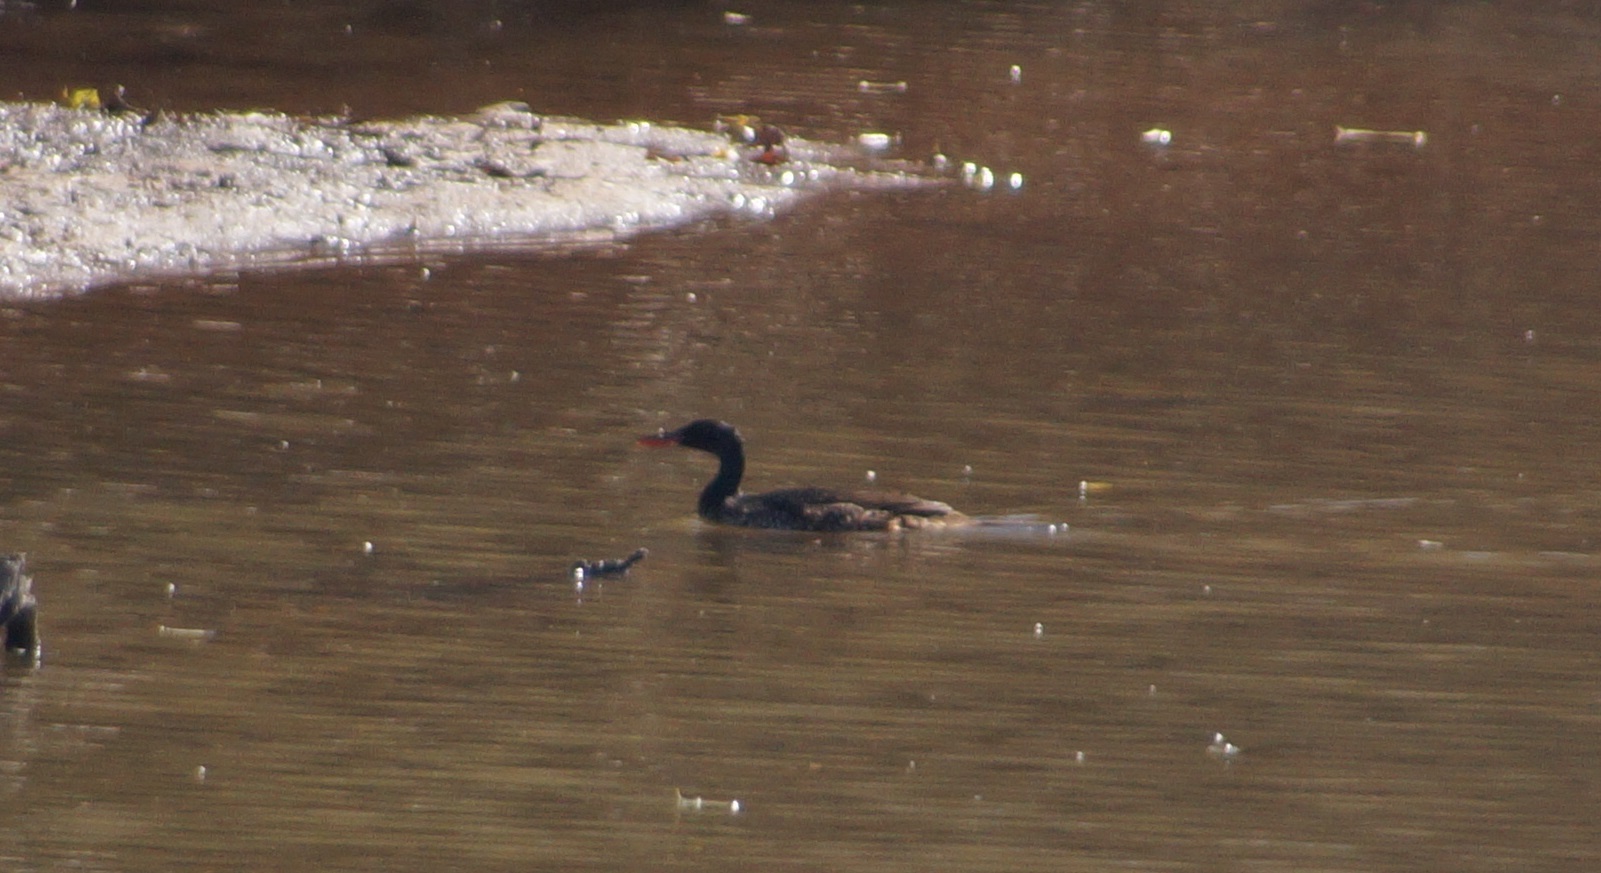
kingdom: Animalia
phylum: Chordata
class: Aves
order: Suliformes
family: Phalacrocoracidae
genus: Microcarbo
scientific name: Microcarbo africanus
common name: Long-tailed cormorant
